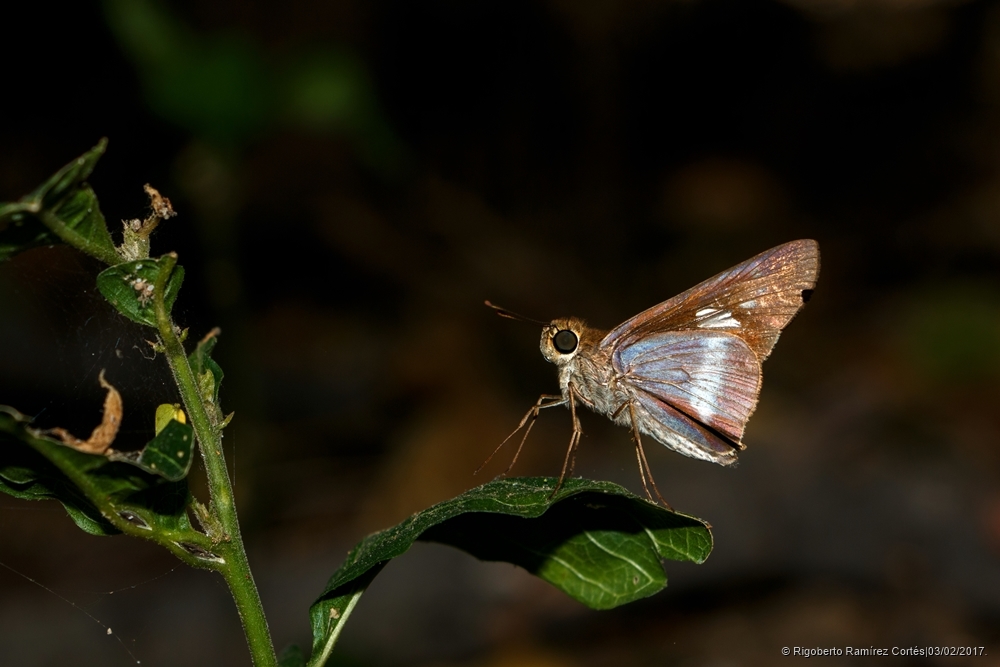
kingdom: Animalia
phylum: Arthropoda
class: Insecta
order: Lepidoptera
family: Hesperiidae
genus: Panoquina
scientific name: Panoquina fusina
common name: Evans' skipper
